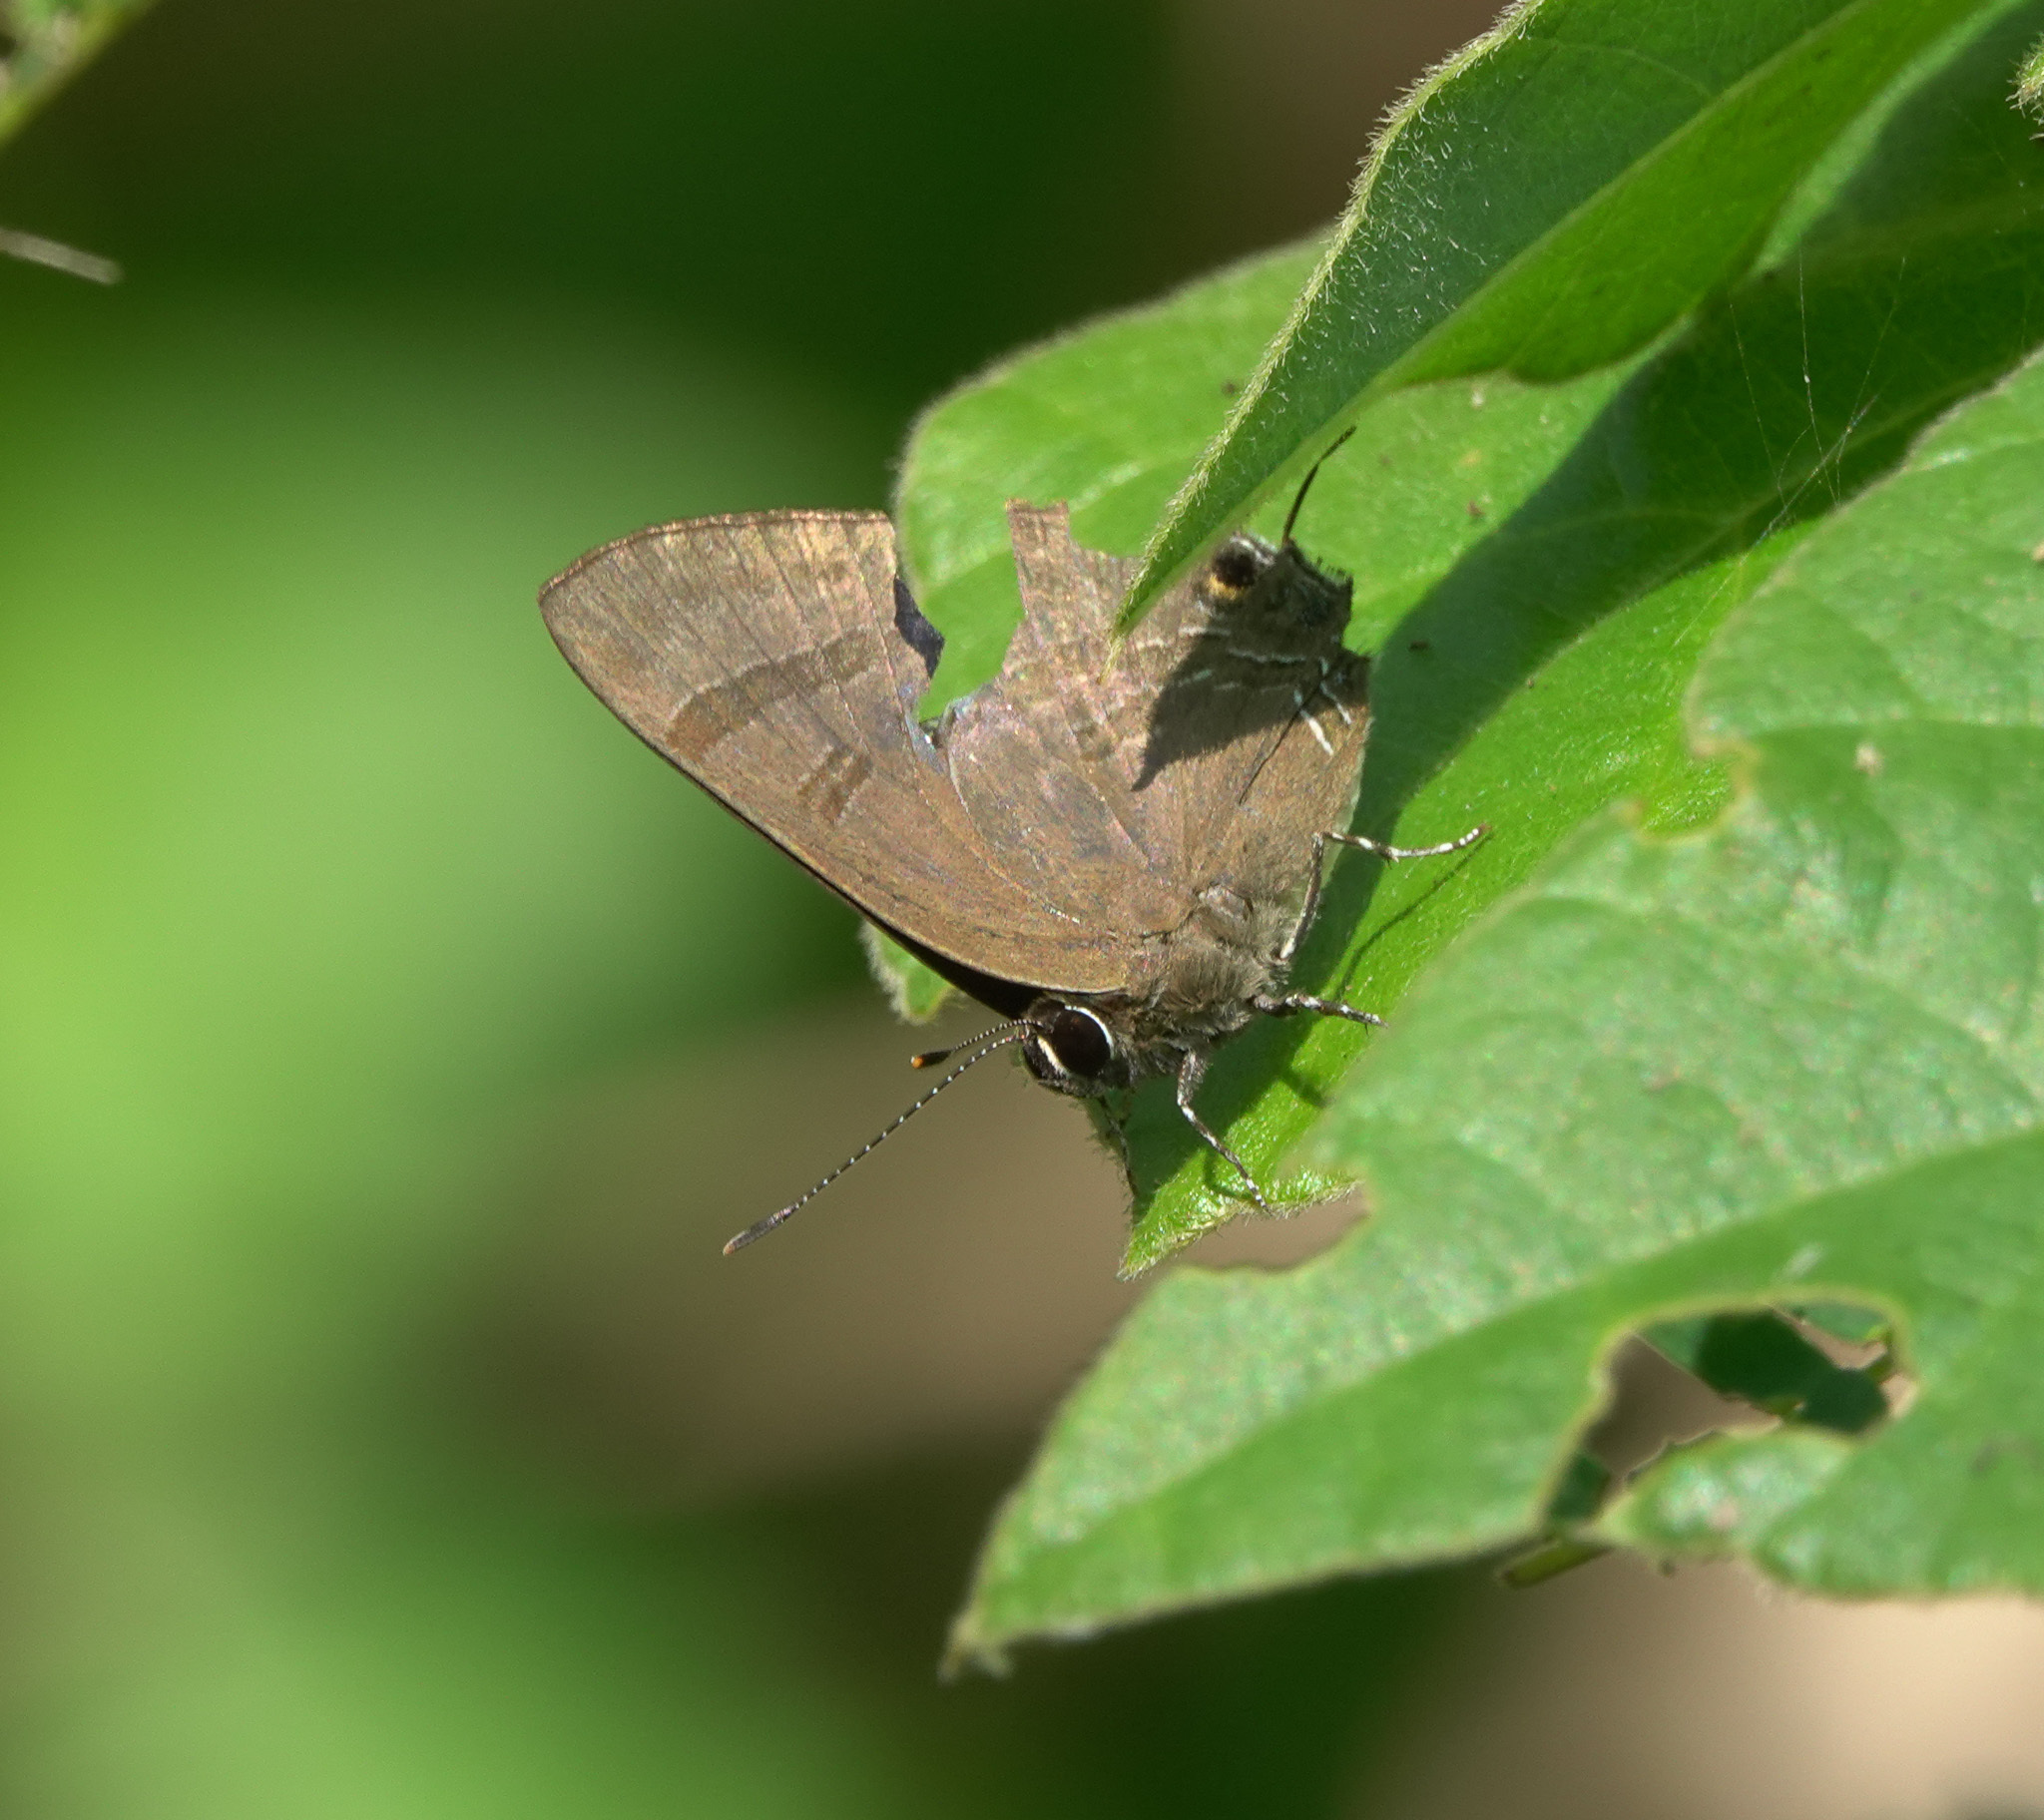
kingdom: Animalia
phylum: Arthropoda
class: Insecta
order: Lepidoptera
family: Lycaenidae
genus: Rapala
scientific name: Rapala varuna
